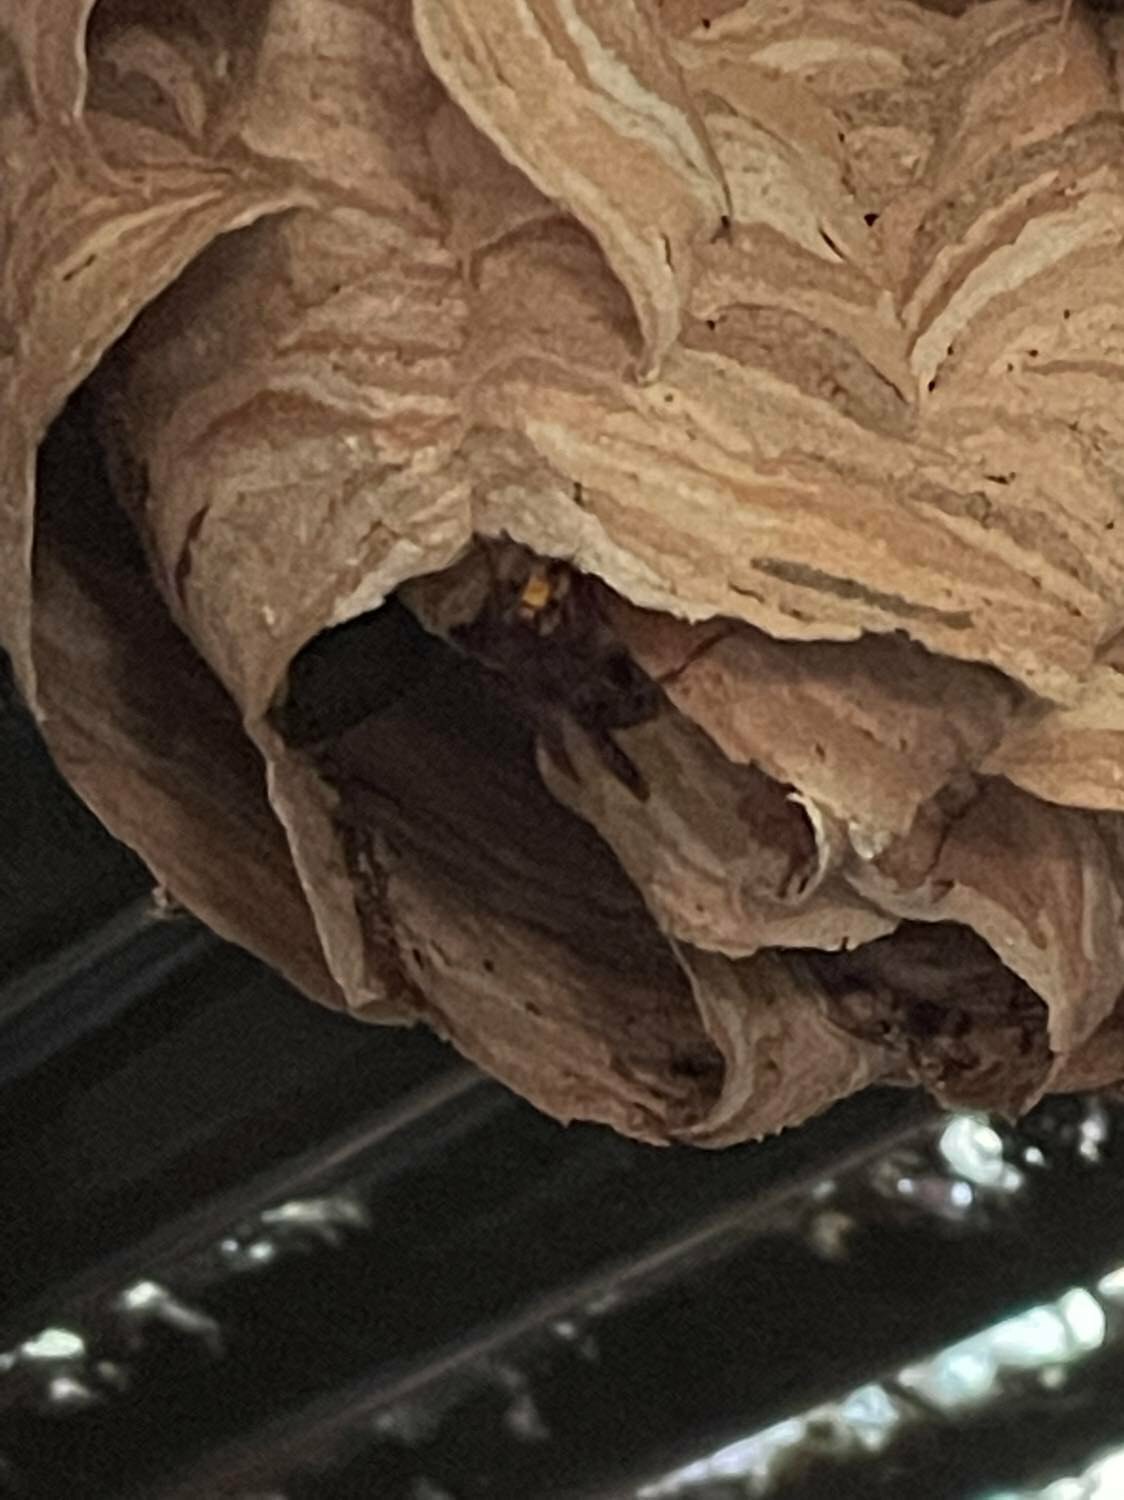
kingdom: Animalia
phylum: Arthropoda
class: Insecta
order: Hymenoptera
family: Vespidae
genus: Vespa
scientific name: Vespa crabro
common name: Hornet
